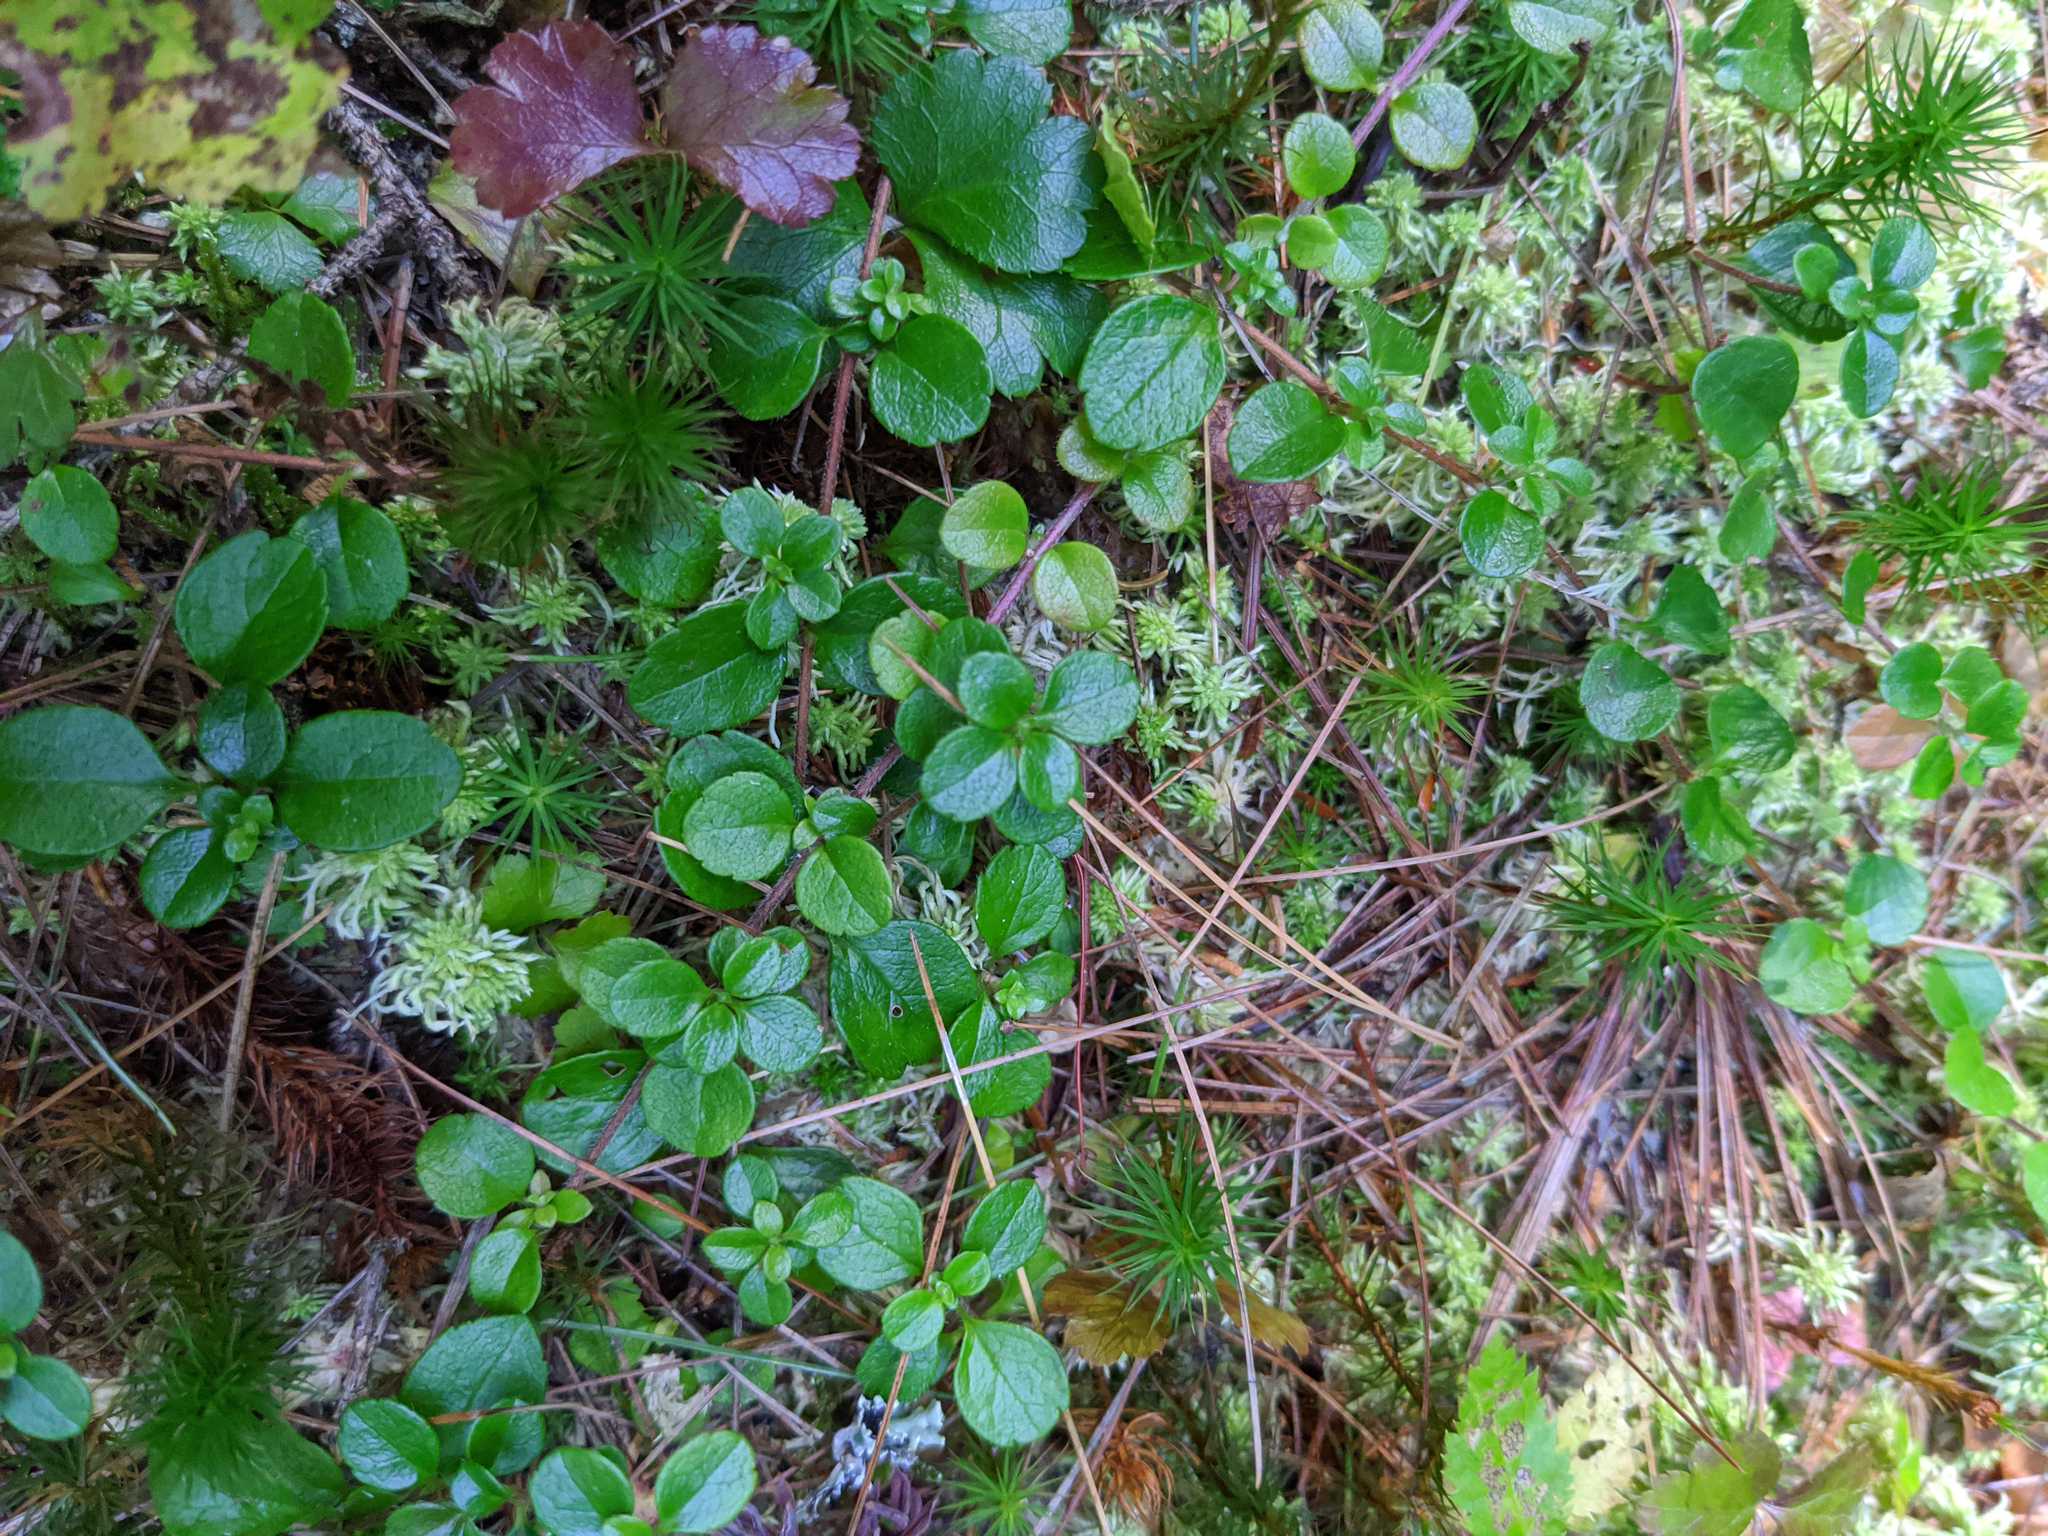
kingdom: Plantae
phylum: Tracheophyta
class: Magnoliopsida
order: Dipsacales
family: Caprifoliaceae
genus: Linnaea
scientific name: Linnaea borealis
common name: Twinflower
